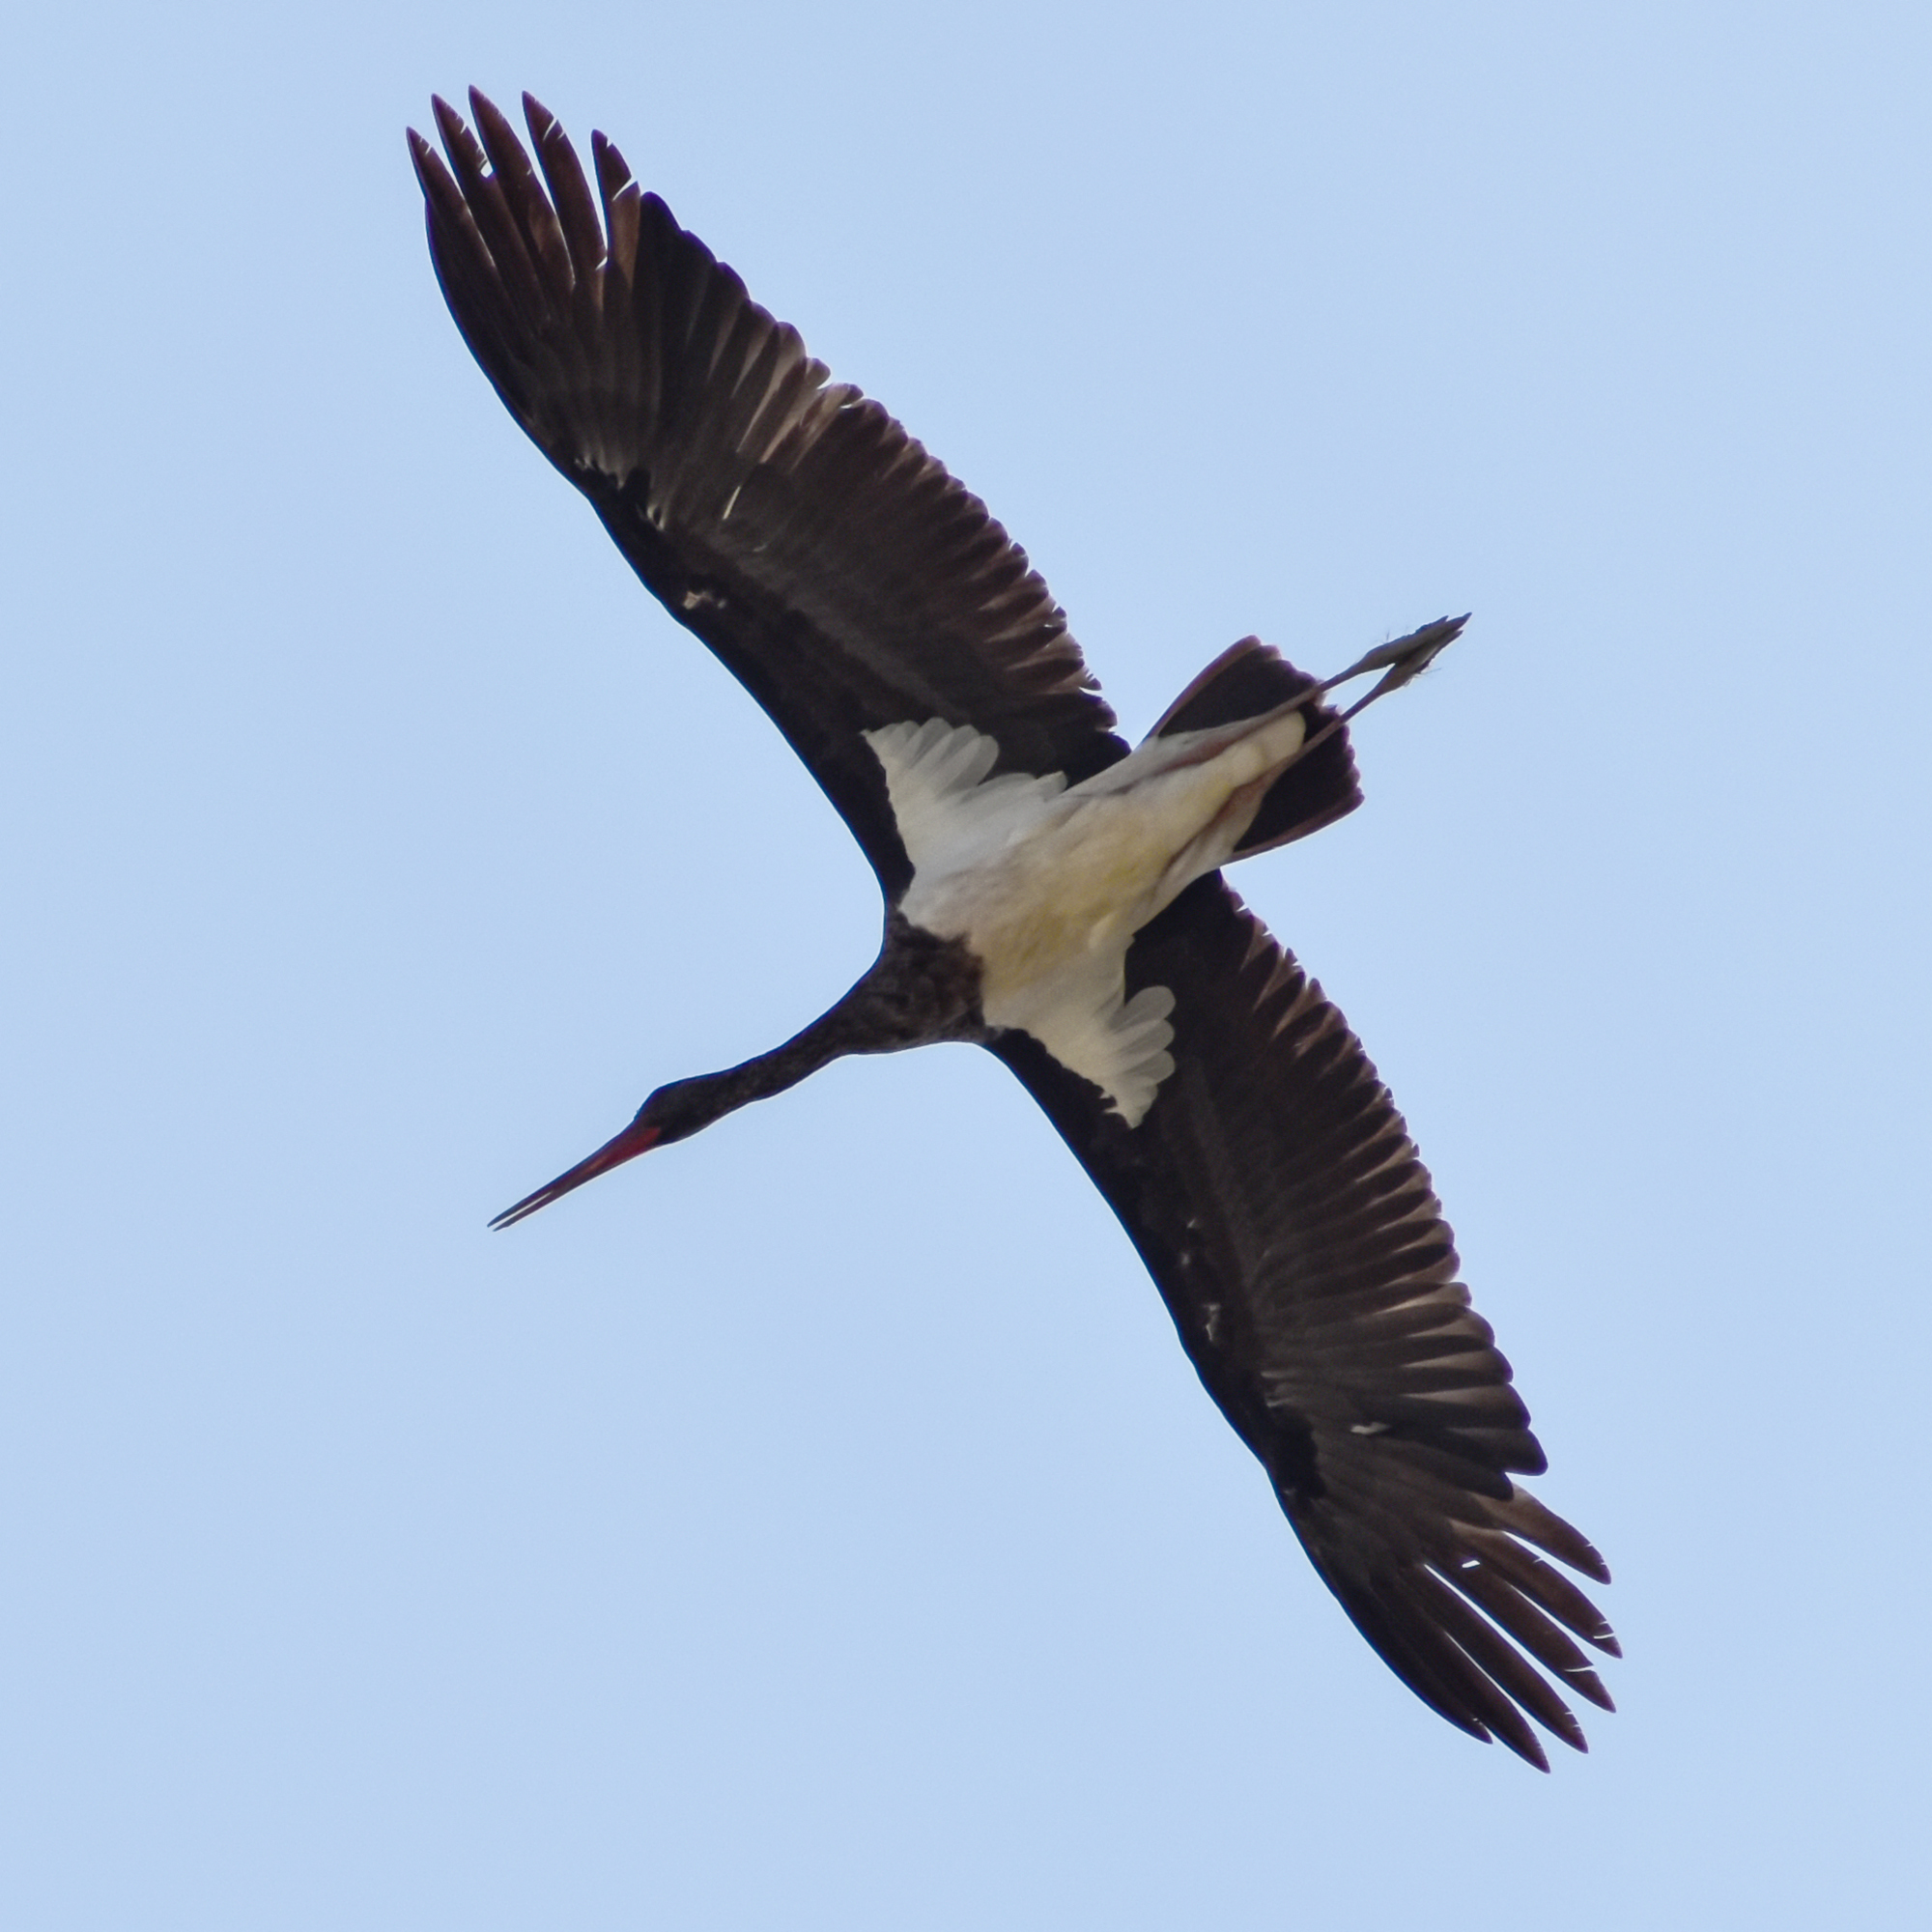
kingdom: Animalia
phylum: Chordata
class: Aves
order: Ciconiiformes
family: Ciconiidae
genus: Ciconia
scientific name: Ciconia nigra
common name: Black stork
